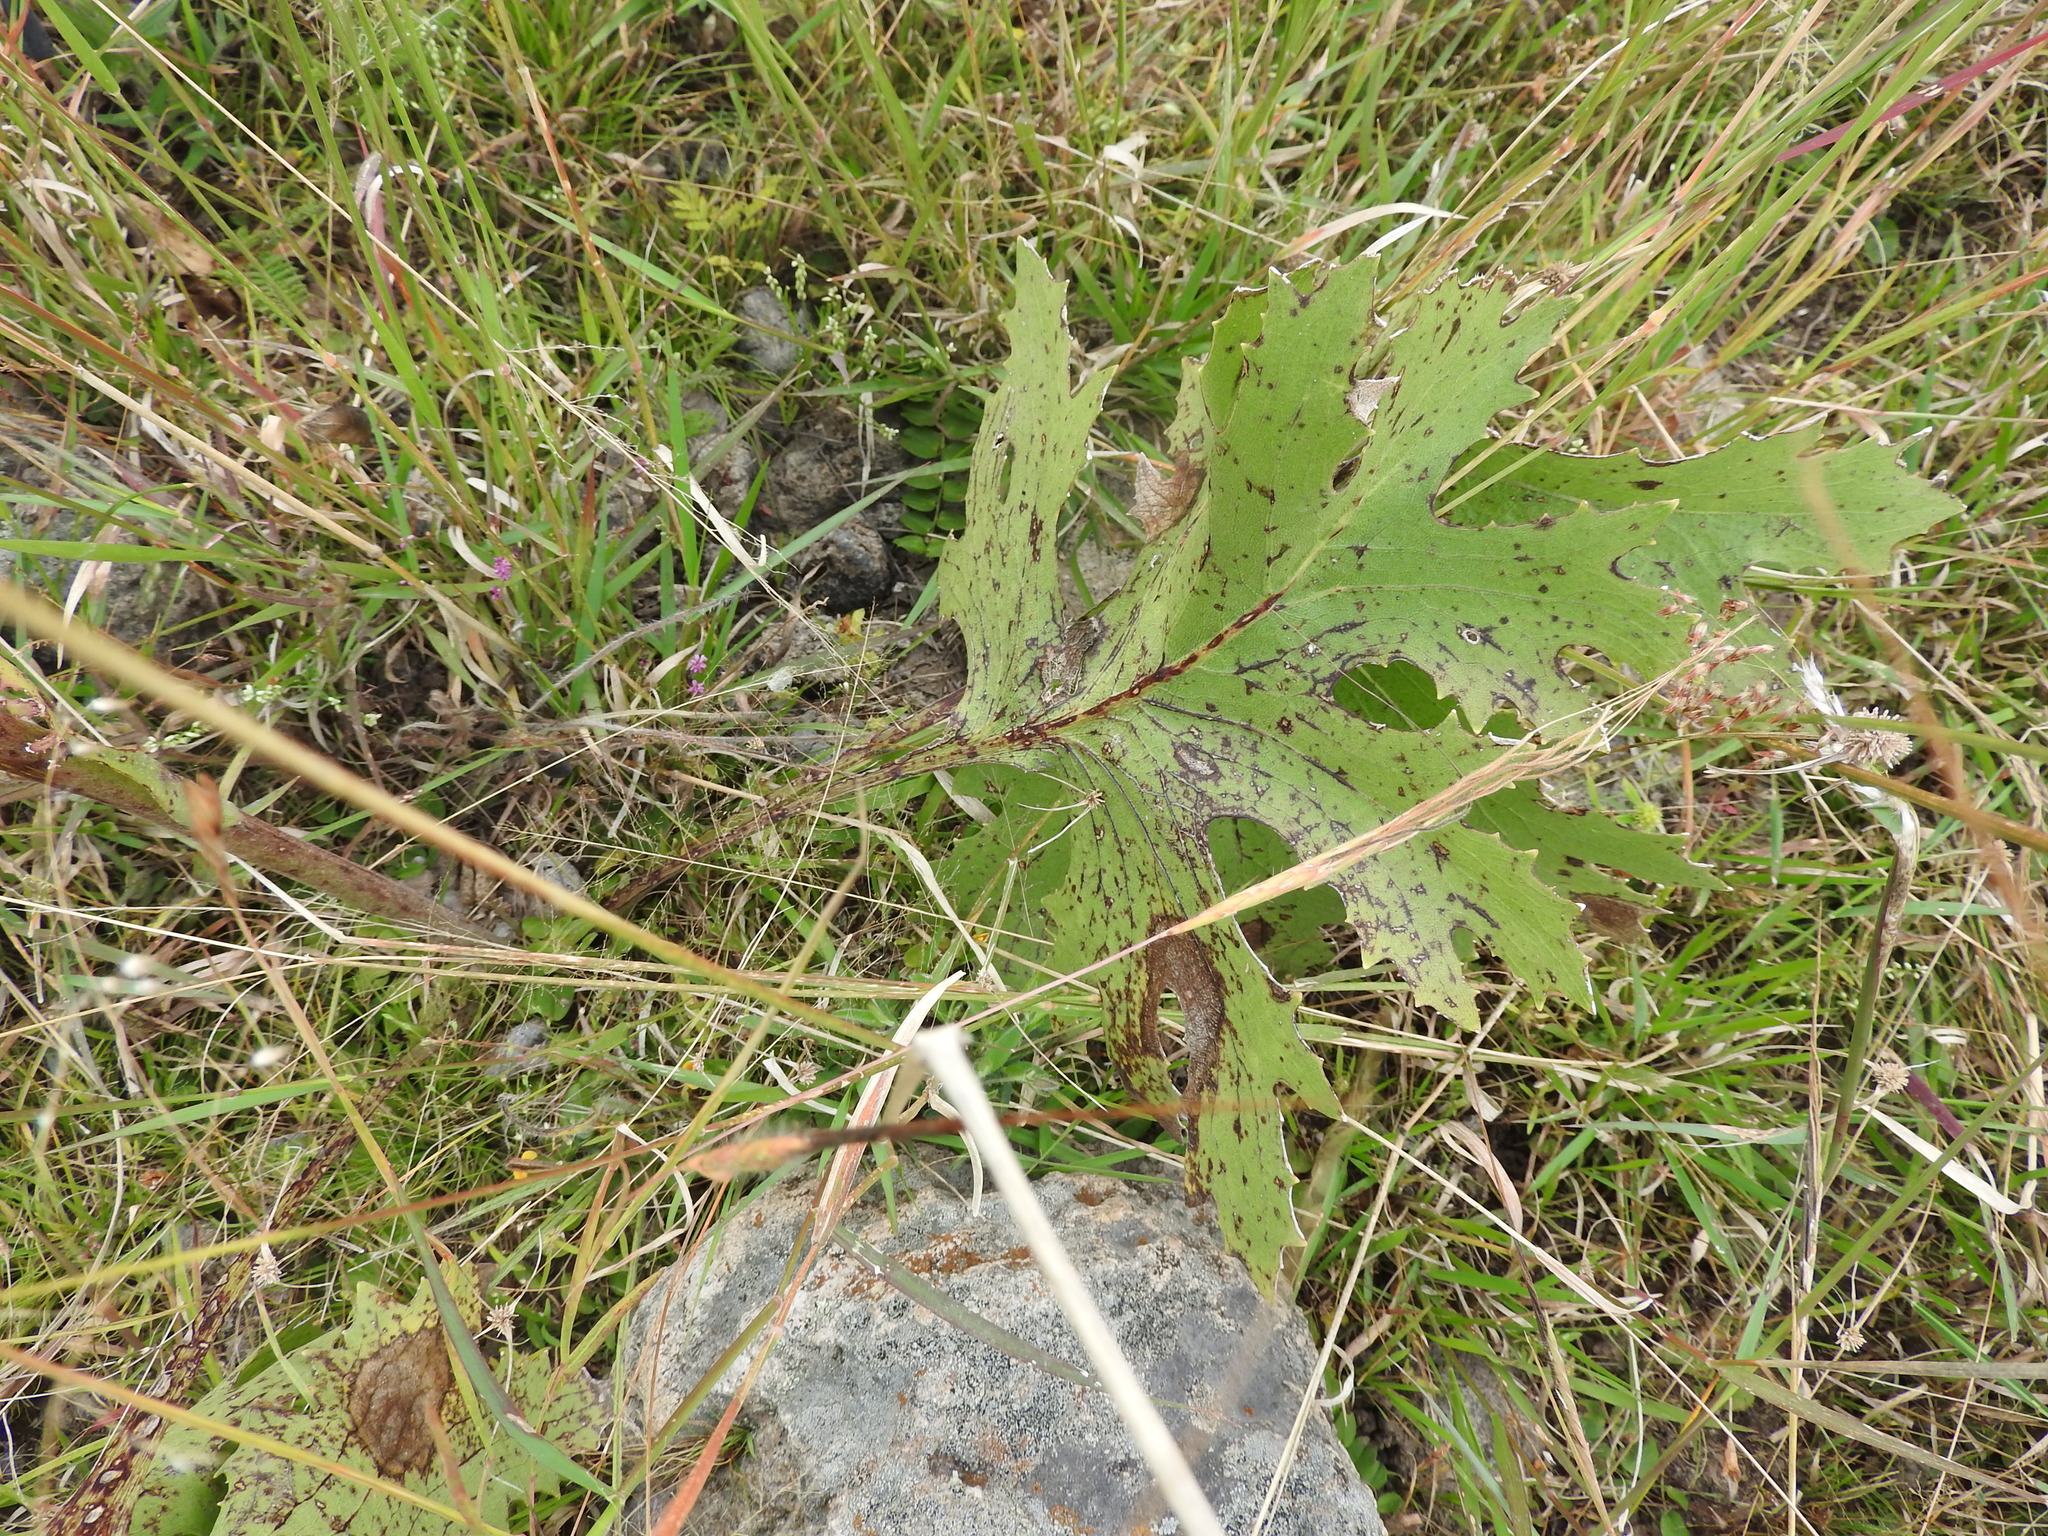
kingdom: Plantae
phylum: Tracheophyta
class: Magnoliopsida
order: Asterales
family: Asteraceae
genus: Psacalium
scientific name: Psacalium sinuatum
